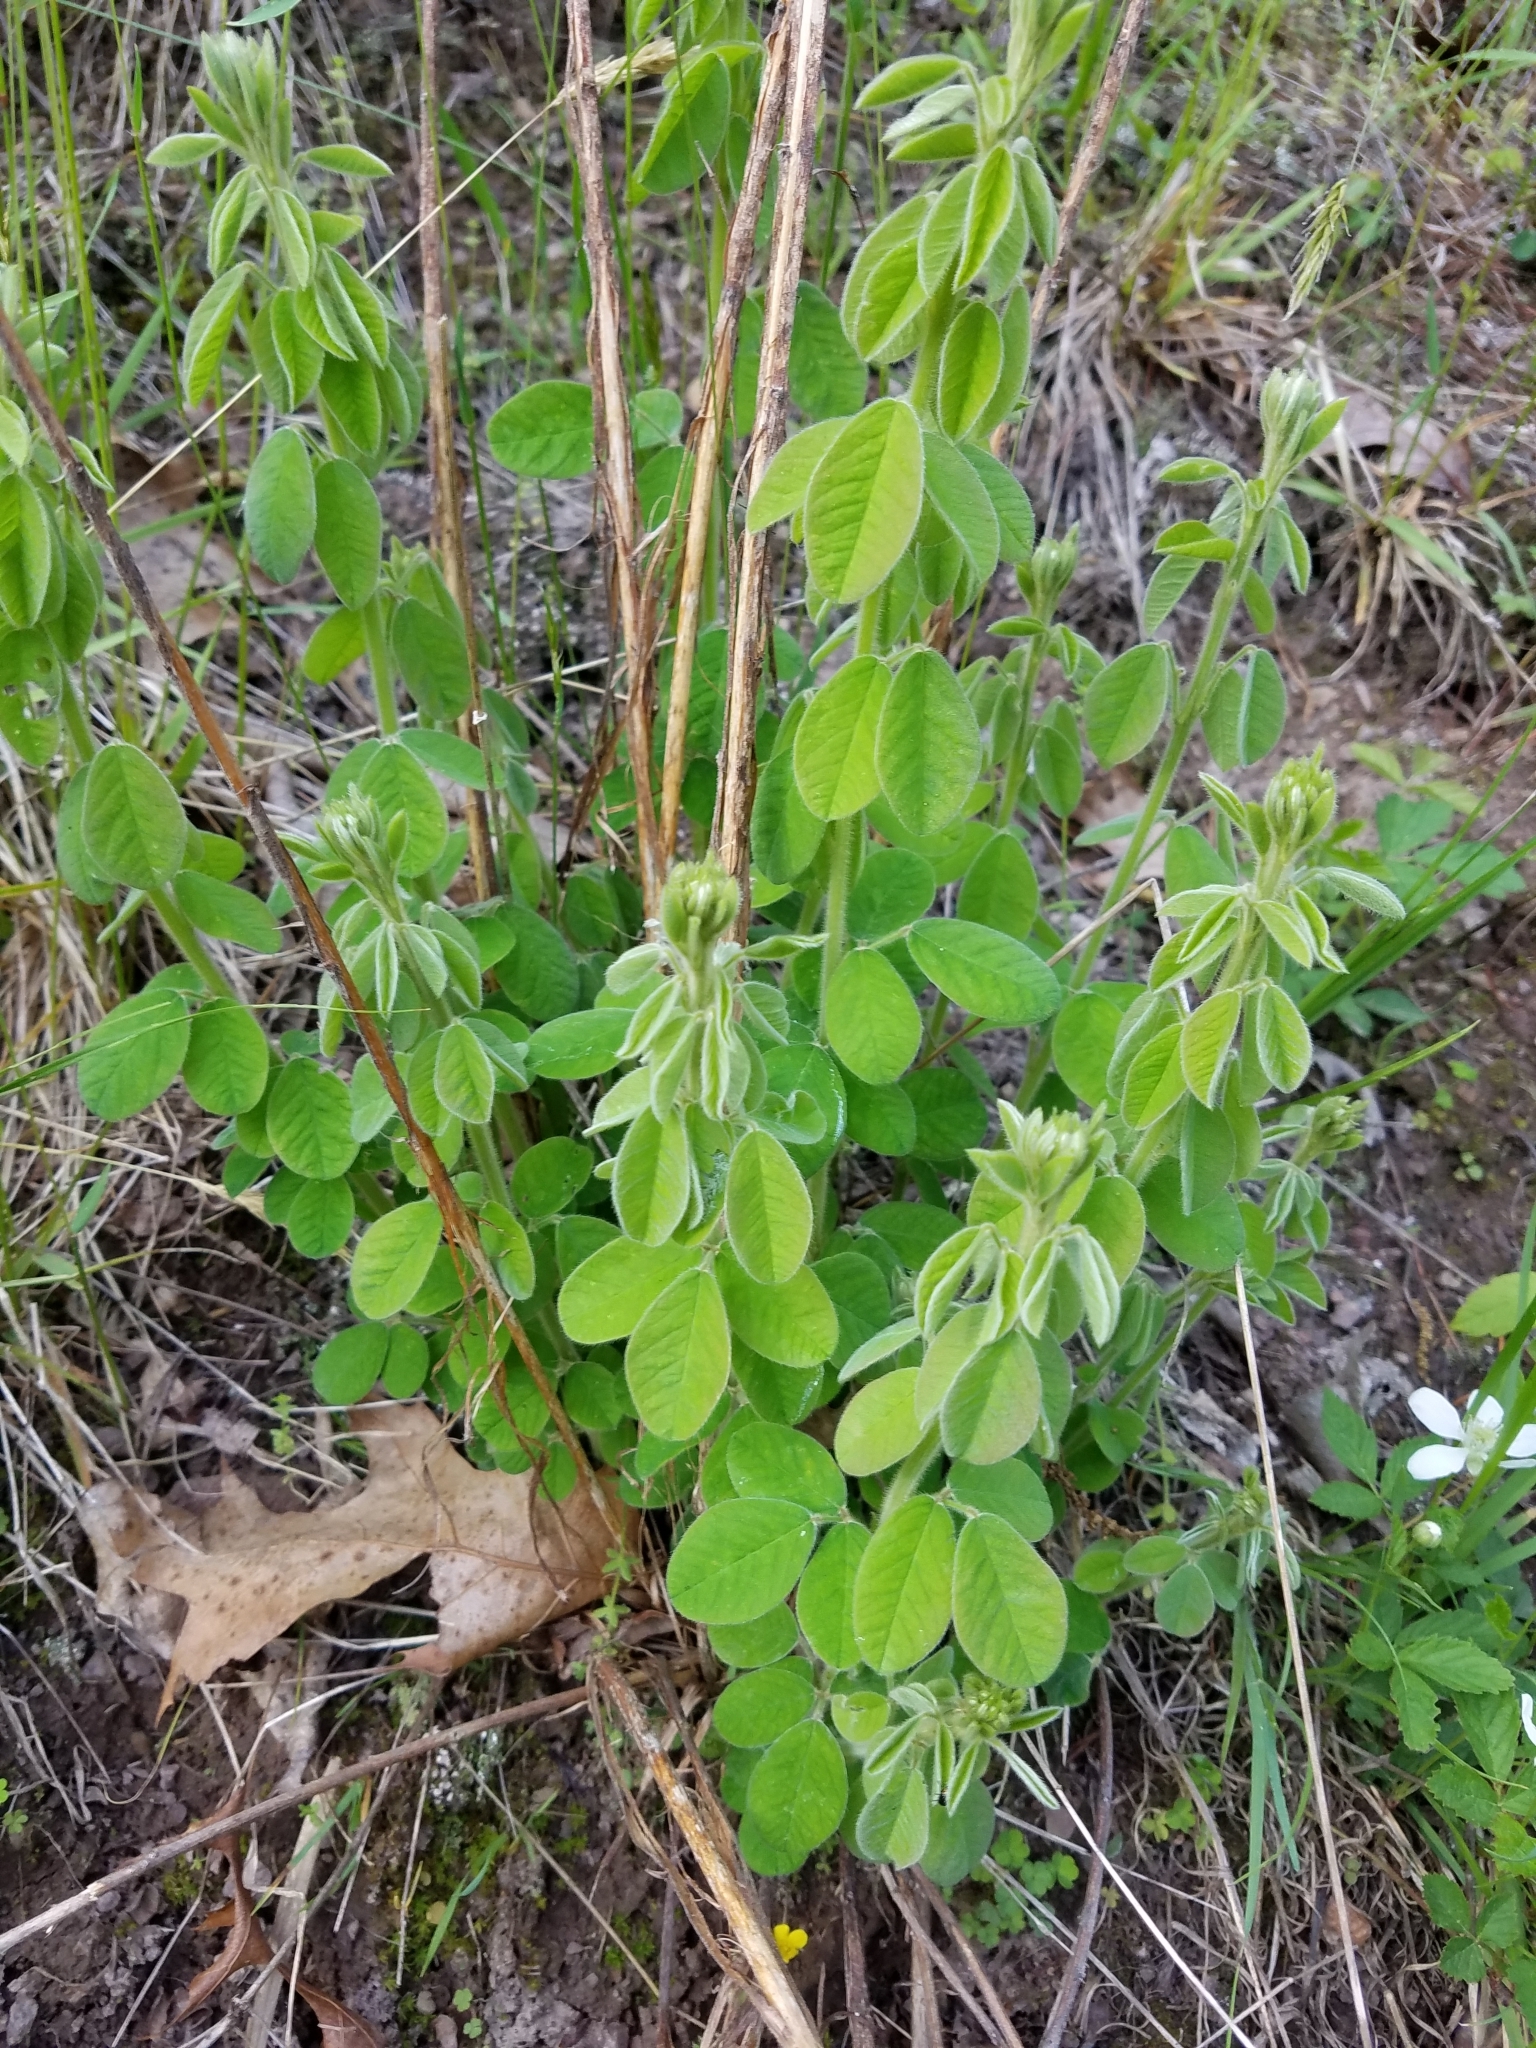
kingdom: Plantae
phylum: Tracheophyta
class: Magnoliopsida
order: Fabales
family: Fabaceae
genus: Lespedeza
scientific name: Lespedeza hirta
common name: Hairy lespedeza
